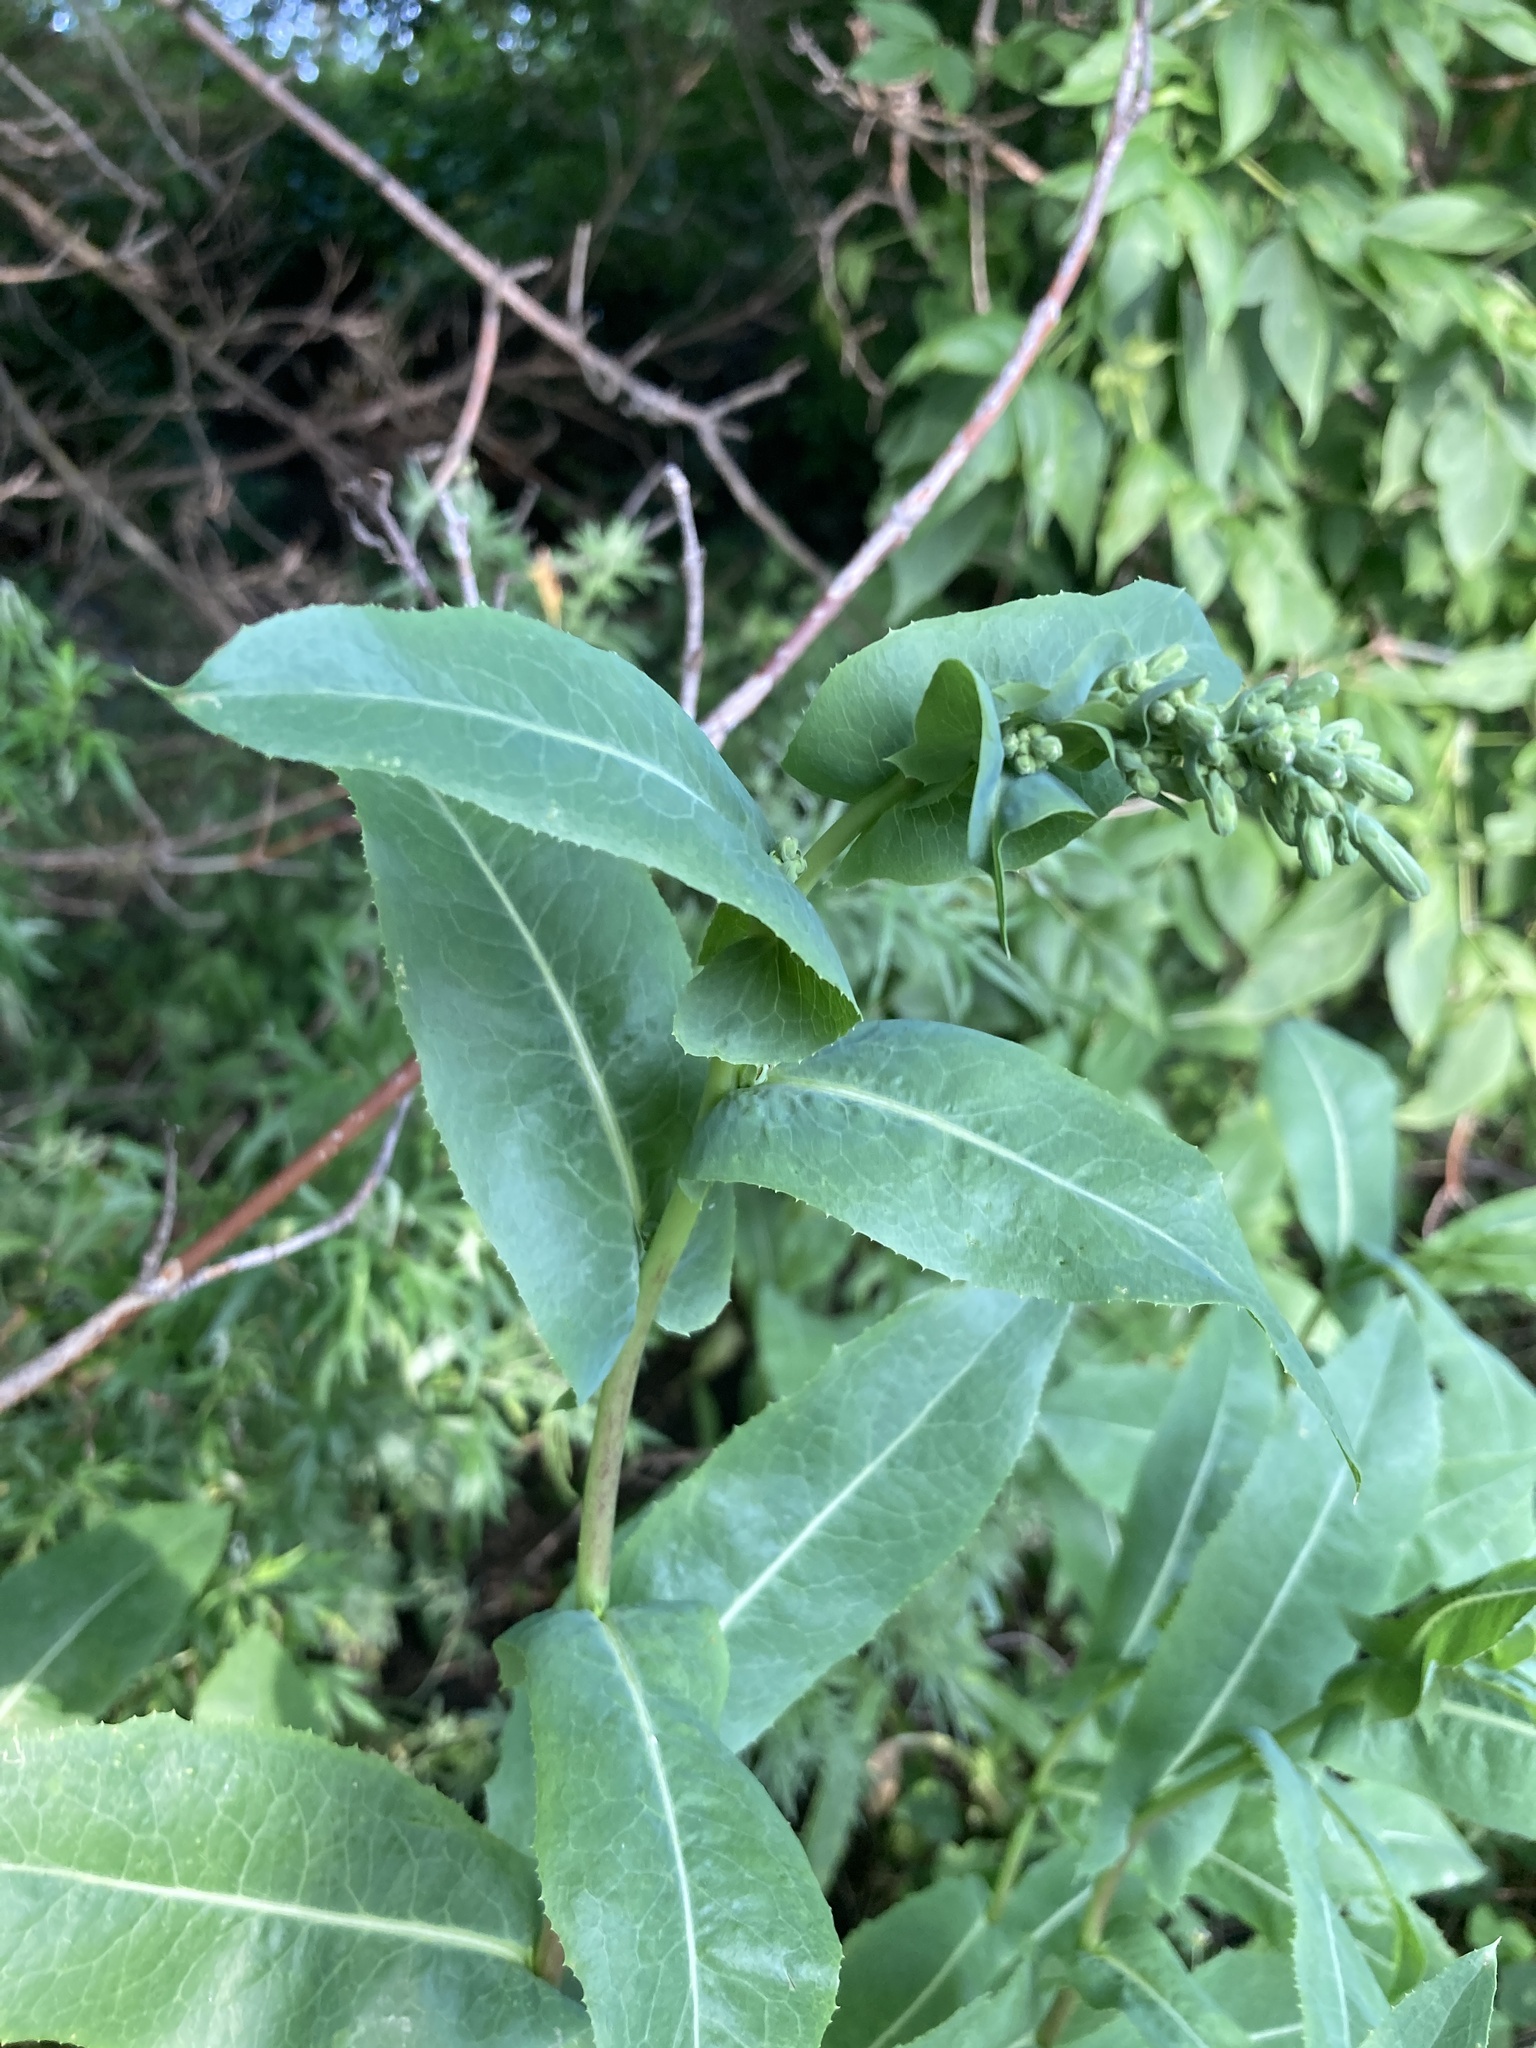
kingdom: Plantae
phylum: Tracheophyta
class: Magnoliopsida
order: Asterales
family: Asteraceae
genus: Lactuca
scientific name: Lactuca serriola
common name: Prickly lettuce
